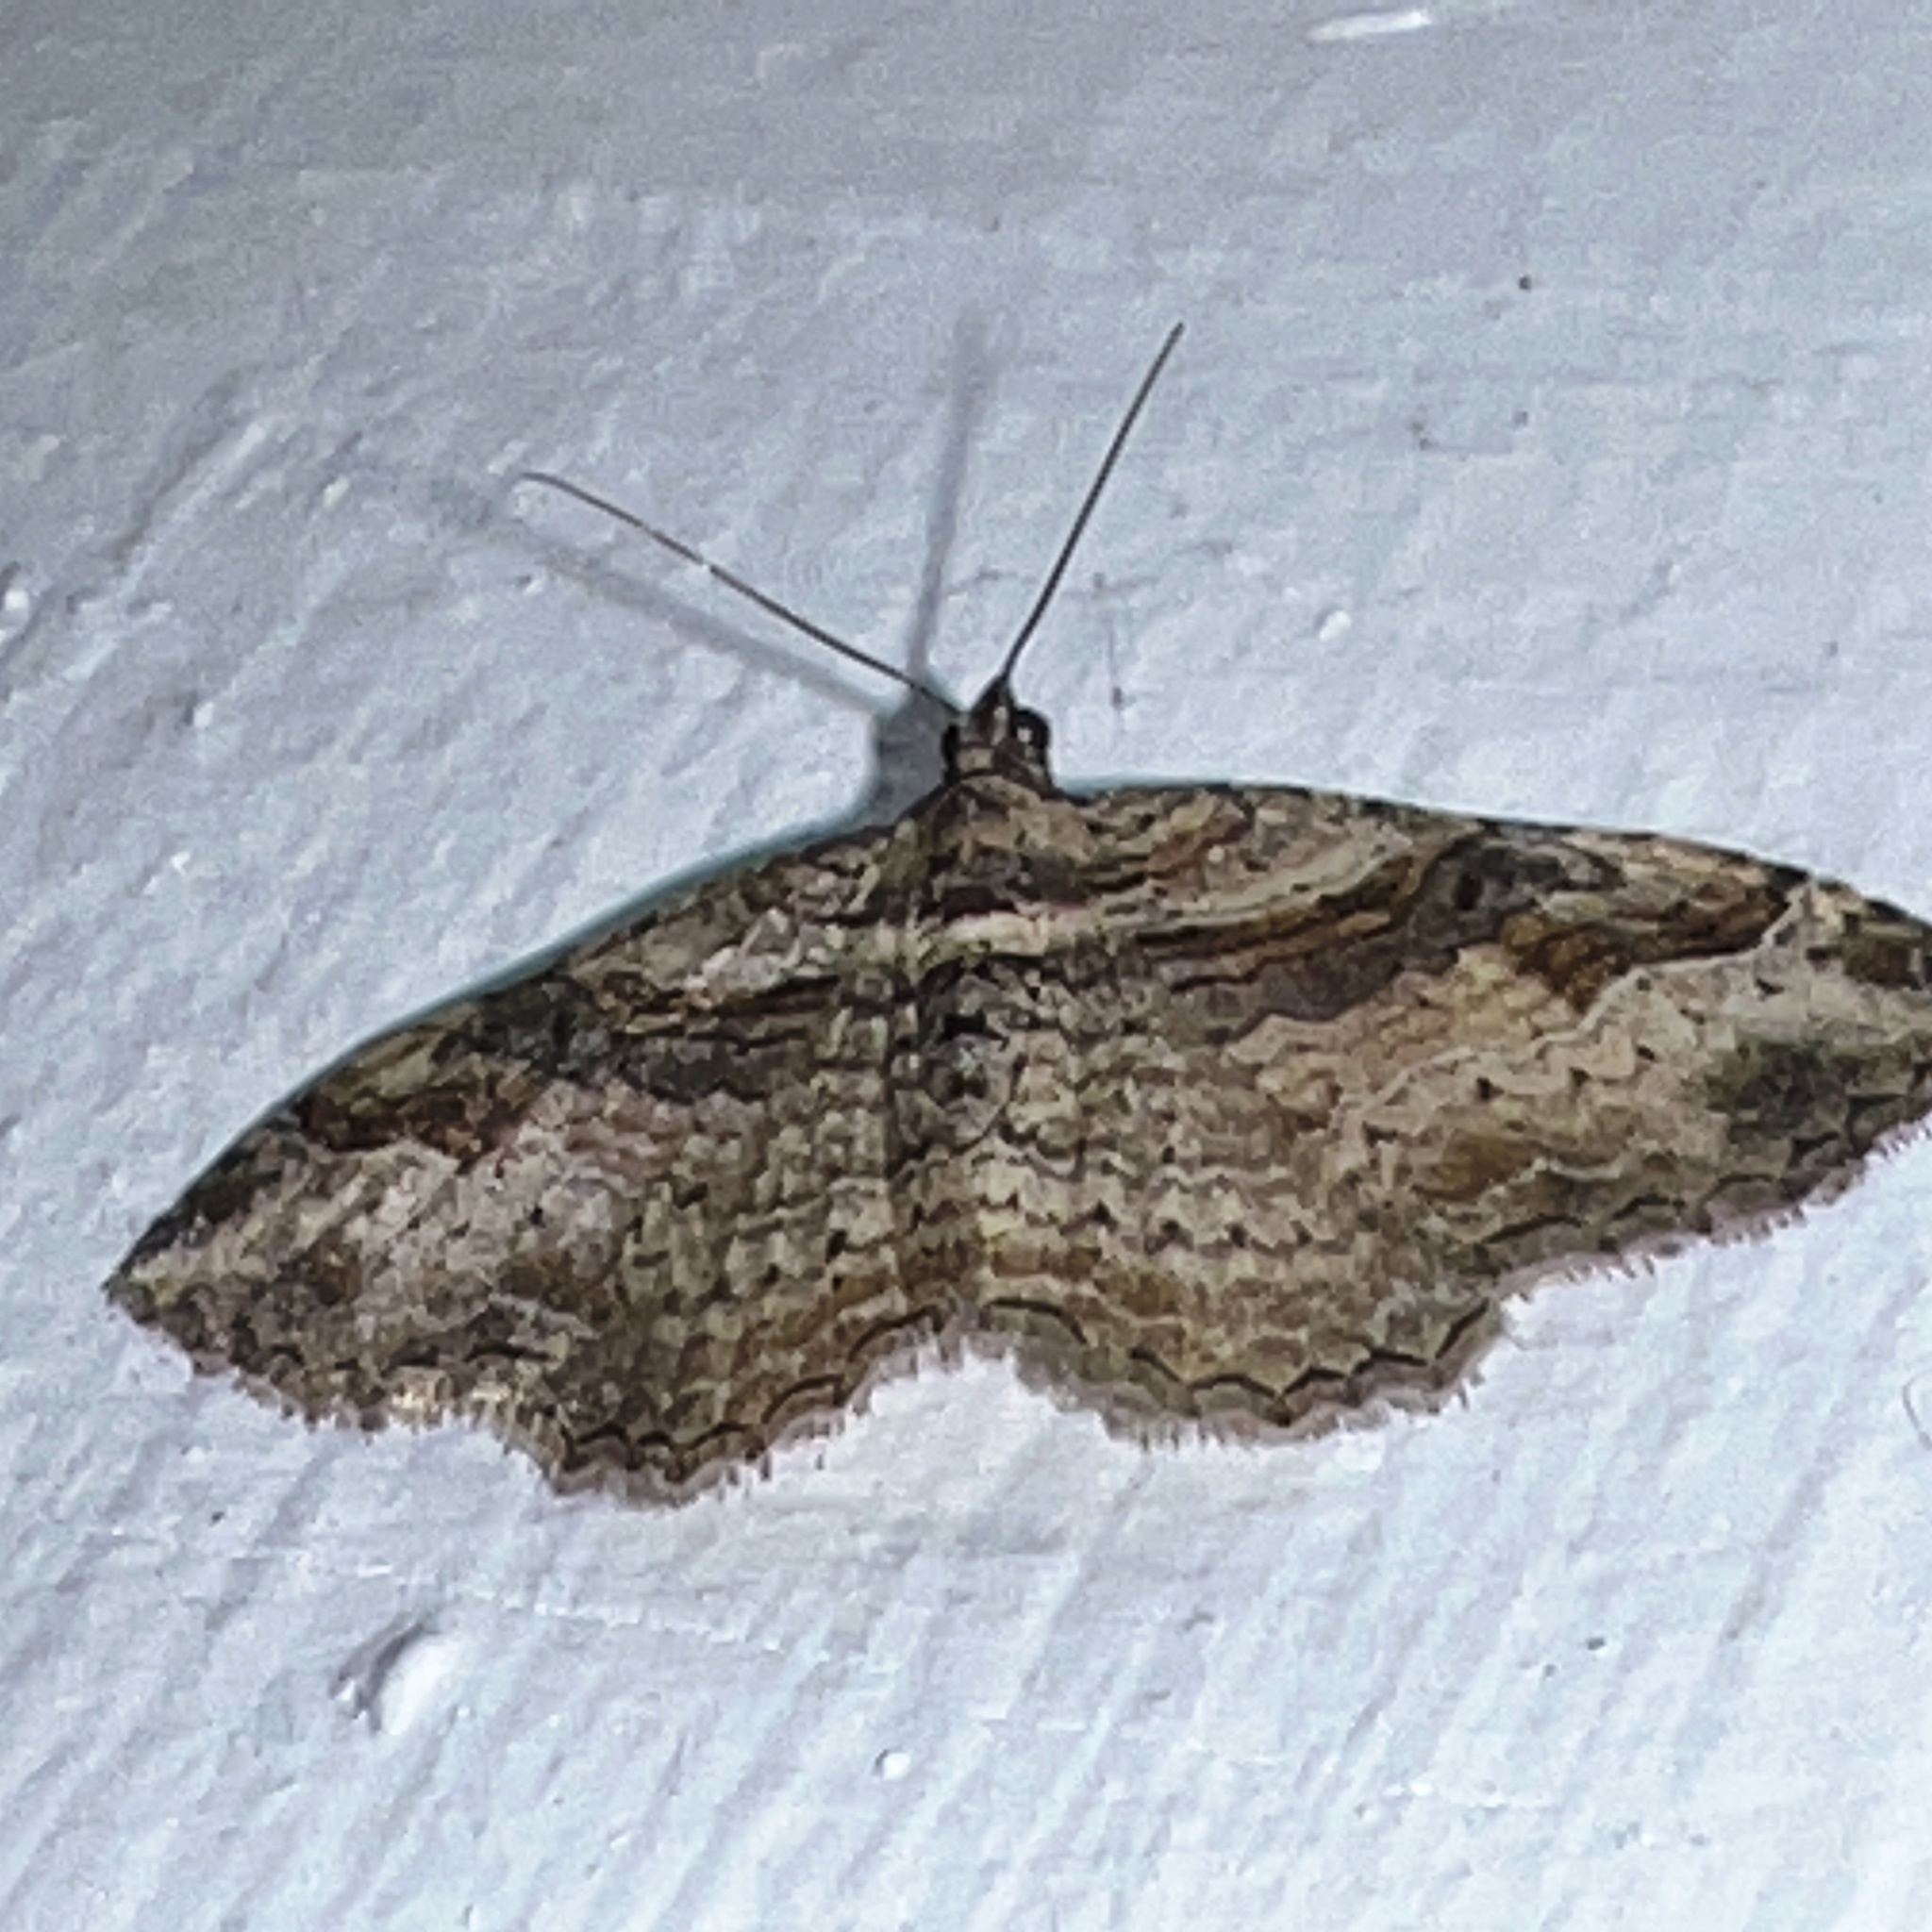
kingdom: Animalia
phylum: Arthropoda
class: Insecta
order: Lepidoptera
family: Geometridae
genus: Costaconvexa
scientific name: Costaconvexa centrostrigaria
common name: Bent-line carpet
